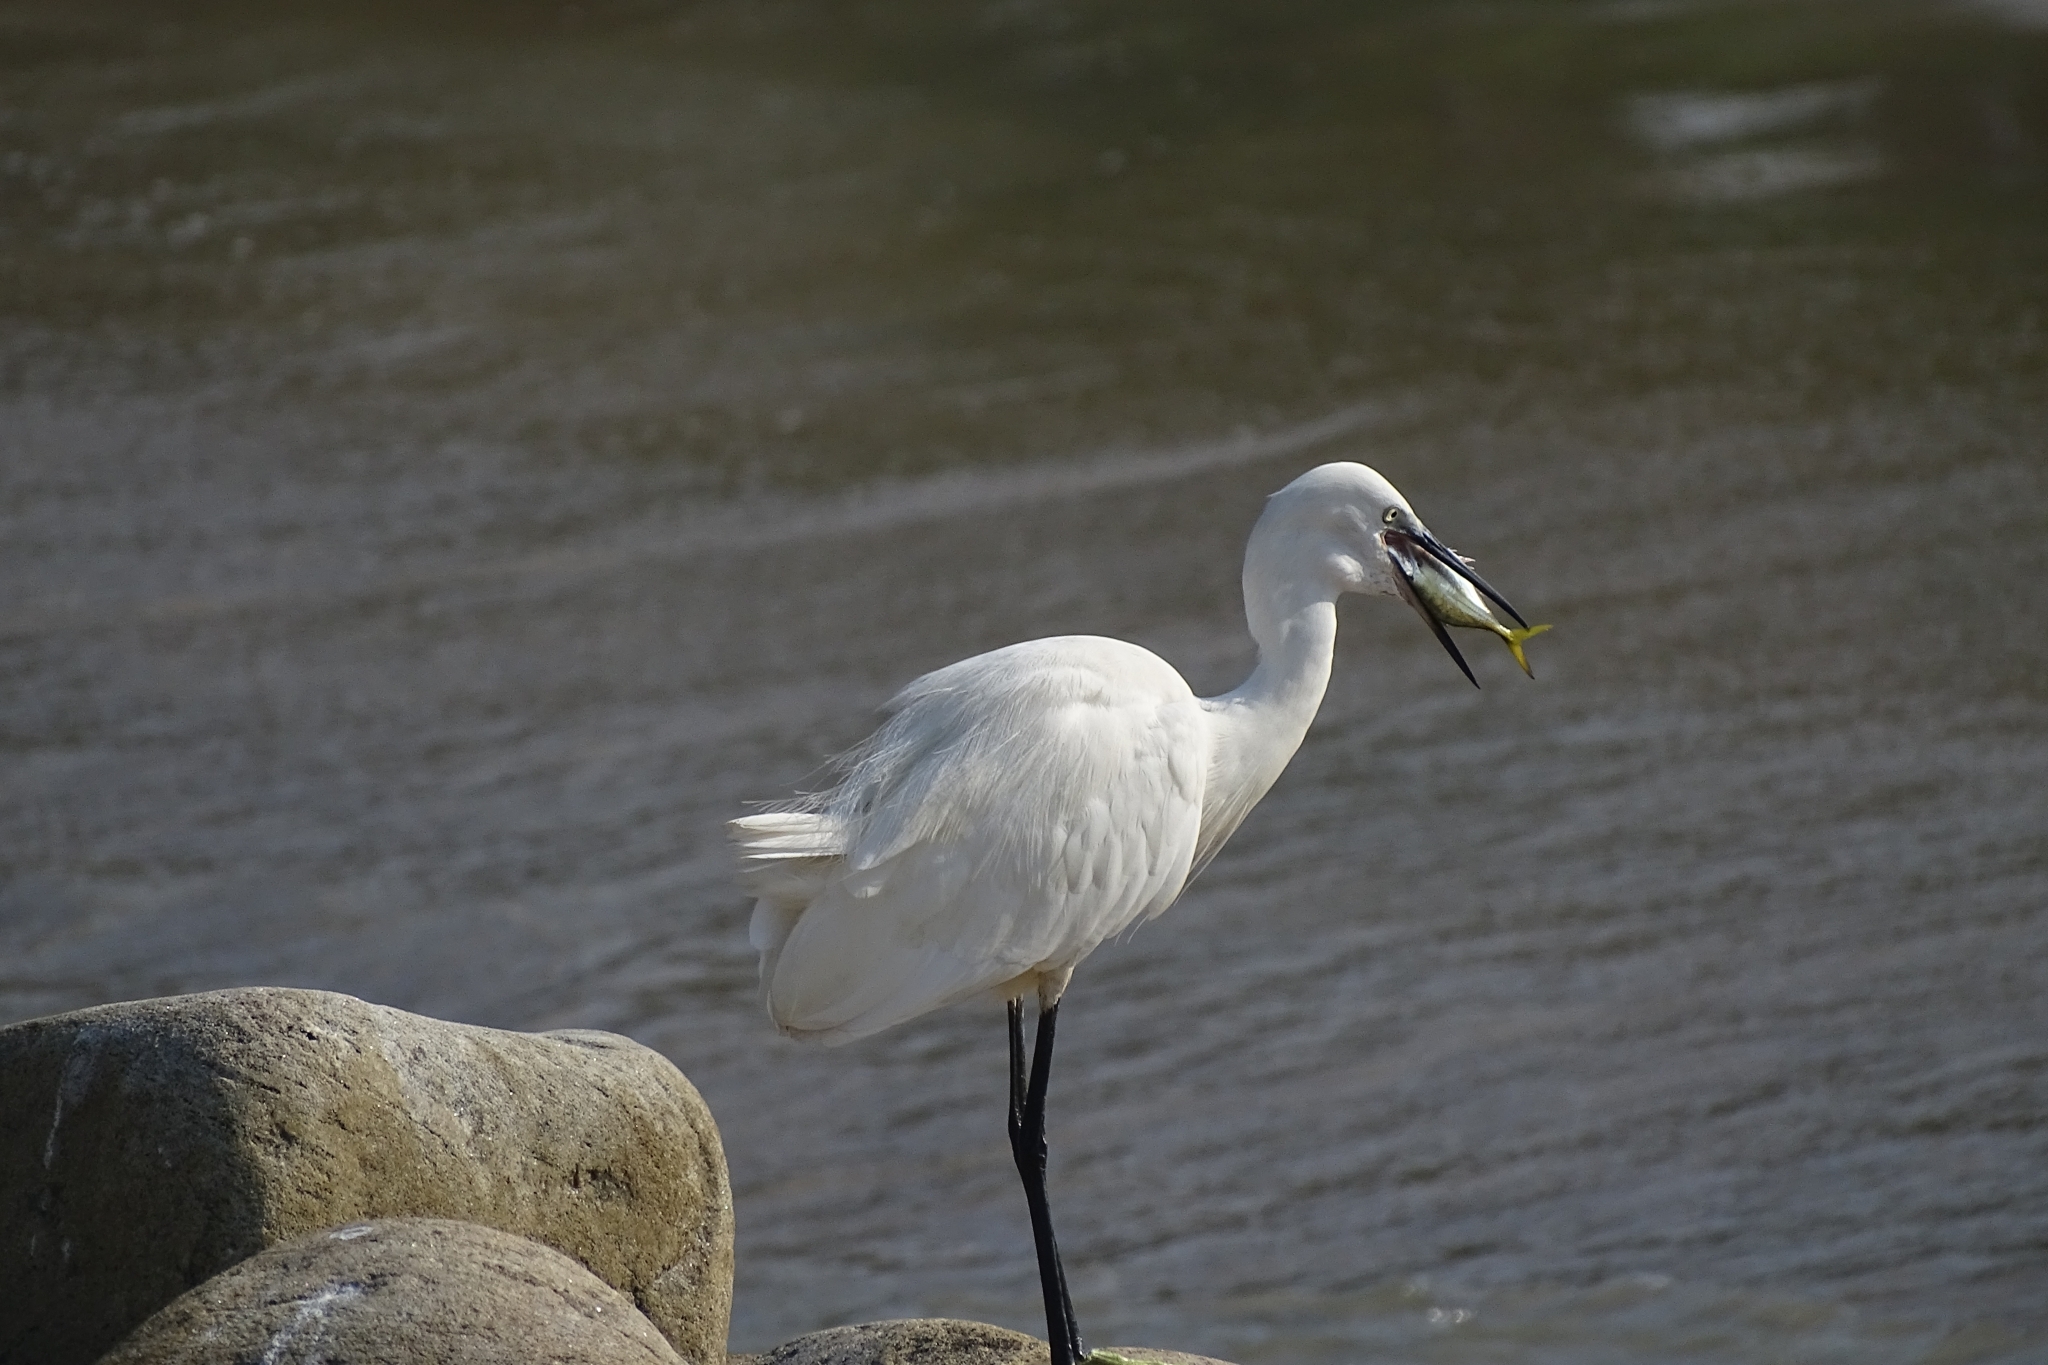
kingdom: Animalia
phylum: Chordata
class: Aves
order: Pelecaniformes
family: Ardeidae
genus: Egretta
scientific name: Egretta garzetta
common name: Little egret
